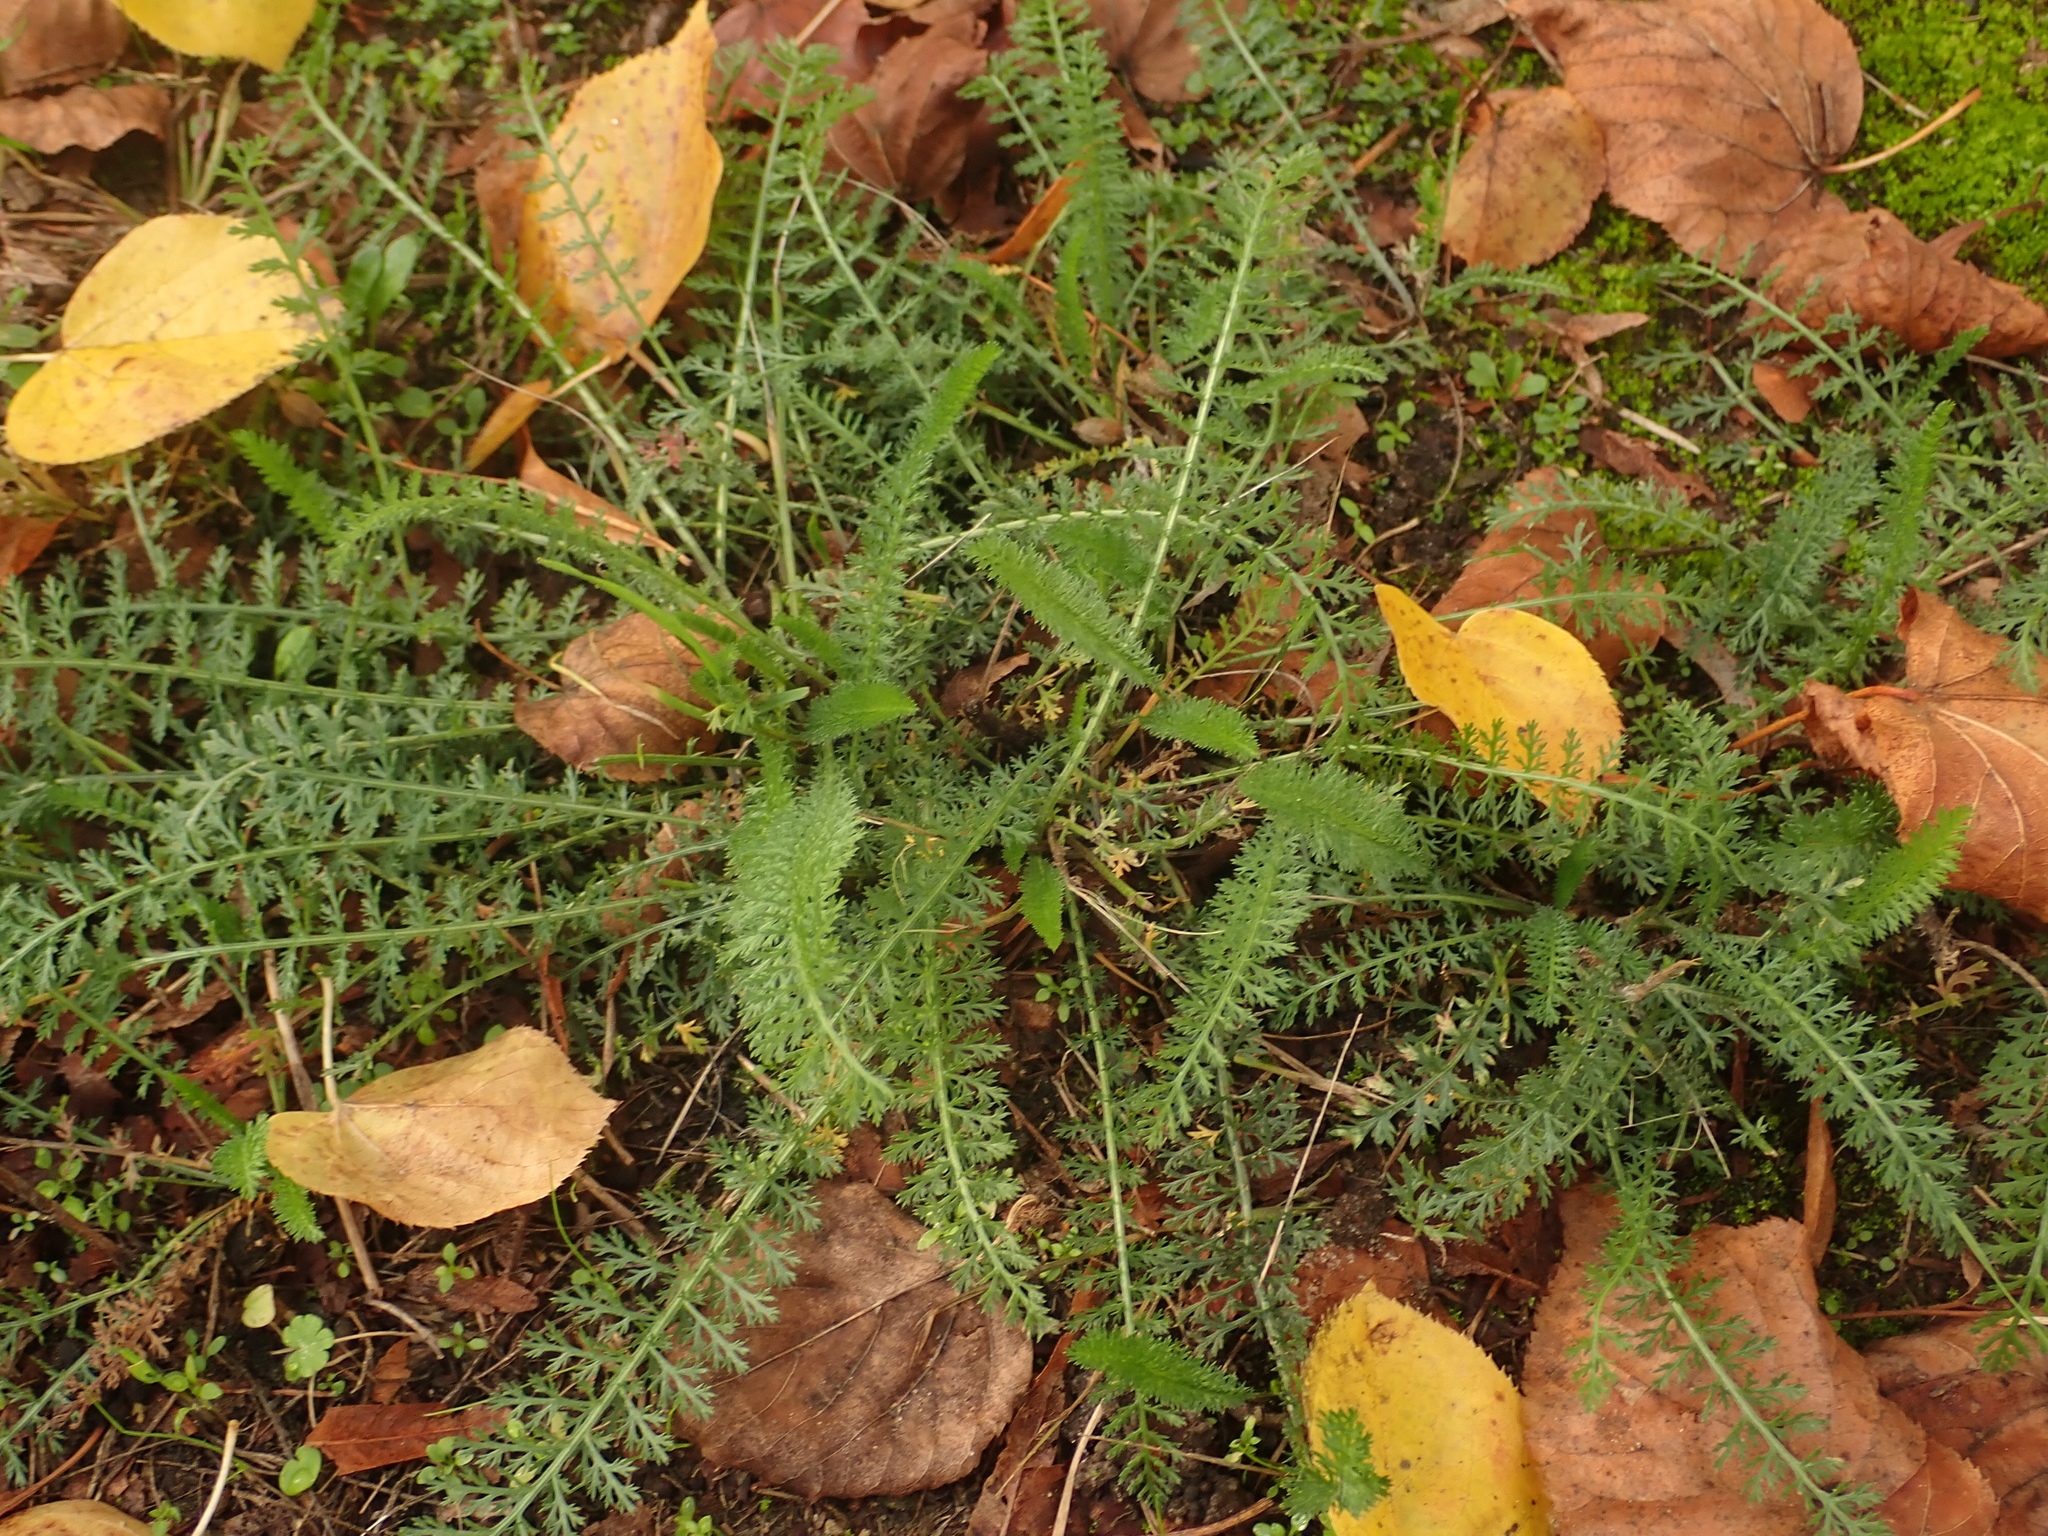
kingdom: Plantae
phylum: Tracheophyta
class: Magnoliopsida
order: Asterales
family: Asteraceae
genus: Achillea
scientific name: Achillea millefolium
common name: Yarrow
